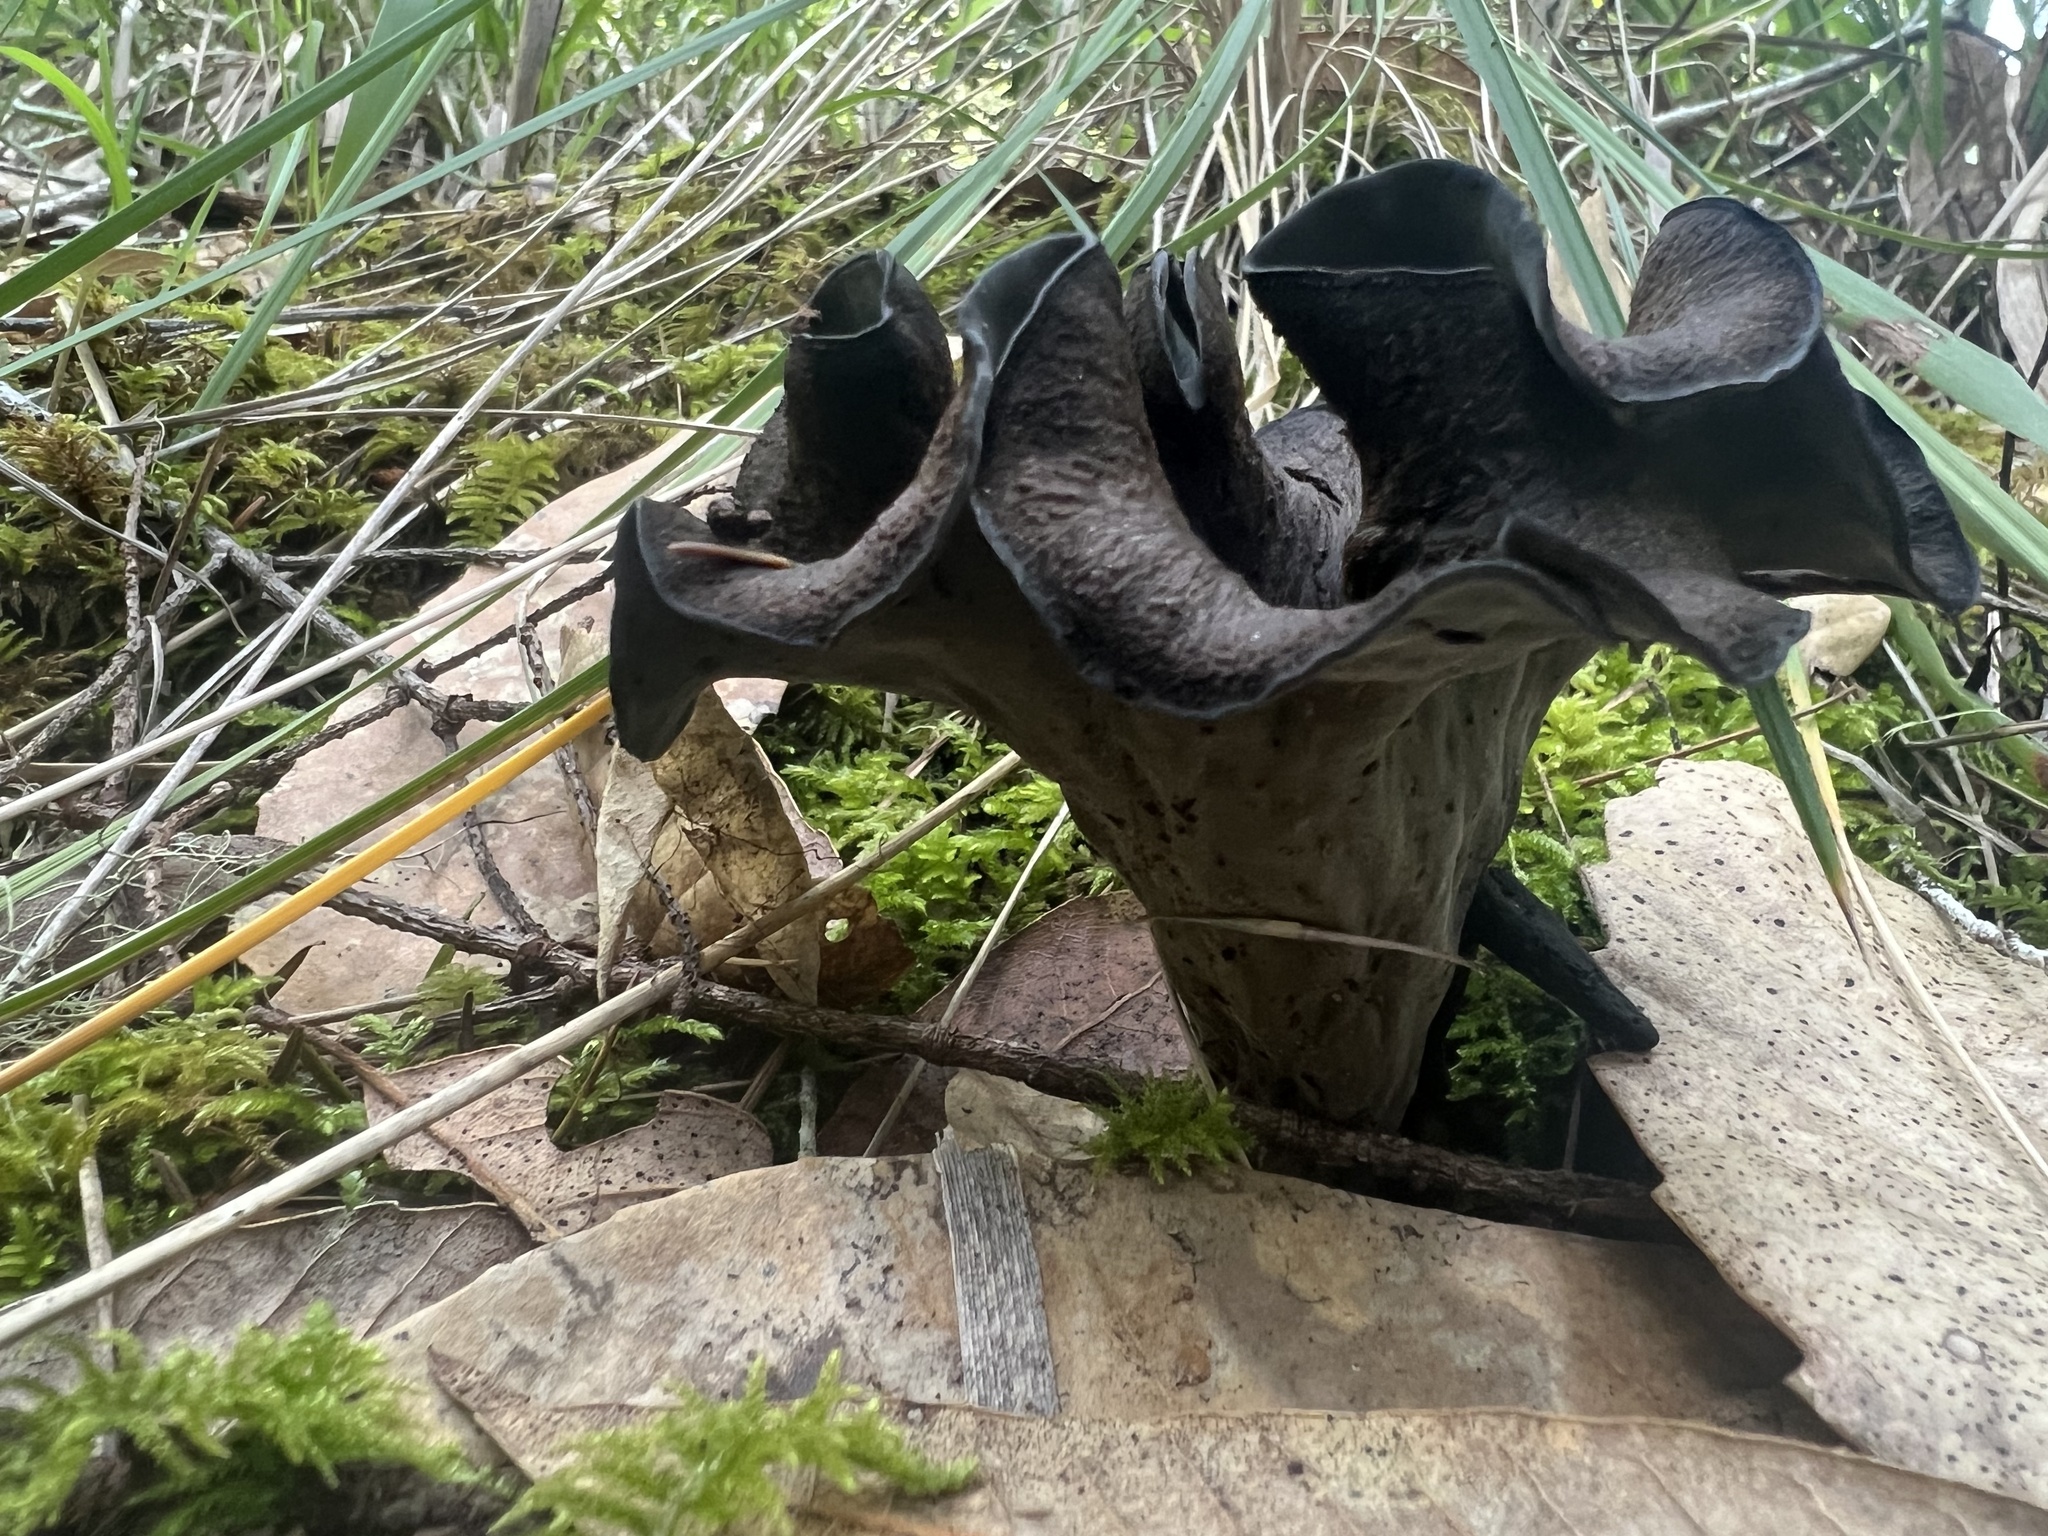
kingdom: Fungi
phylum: Basidiomycota
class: Agaricomycetes
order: Cantharellales
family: Hydnaceae
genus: Craterellus
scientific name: Craterellus calicornucopioides
